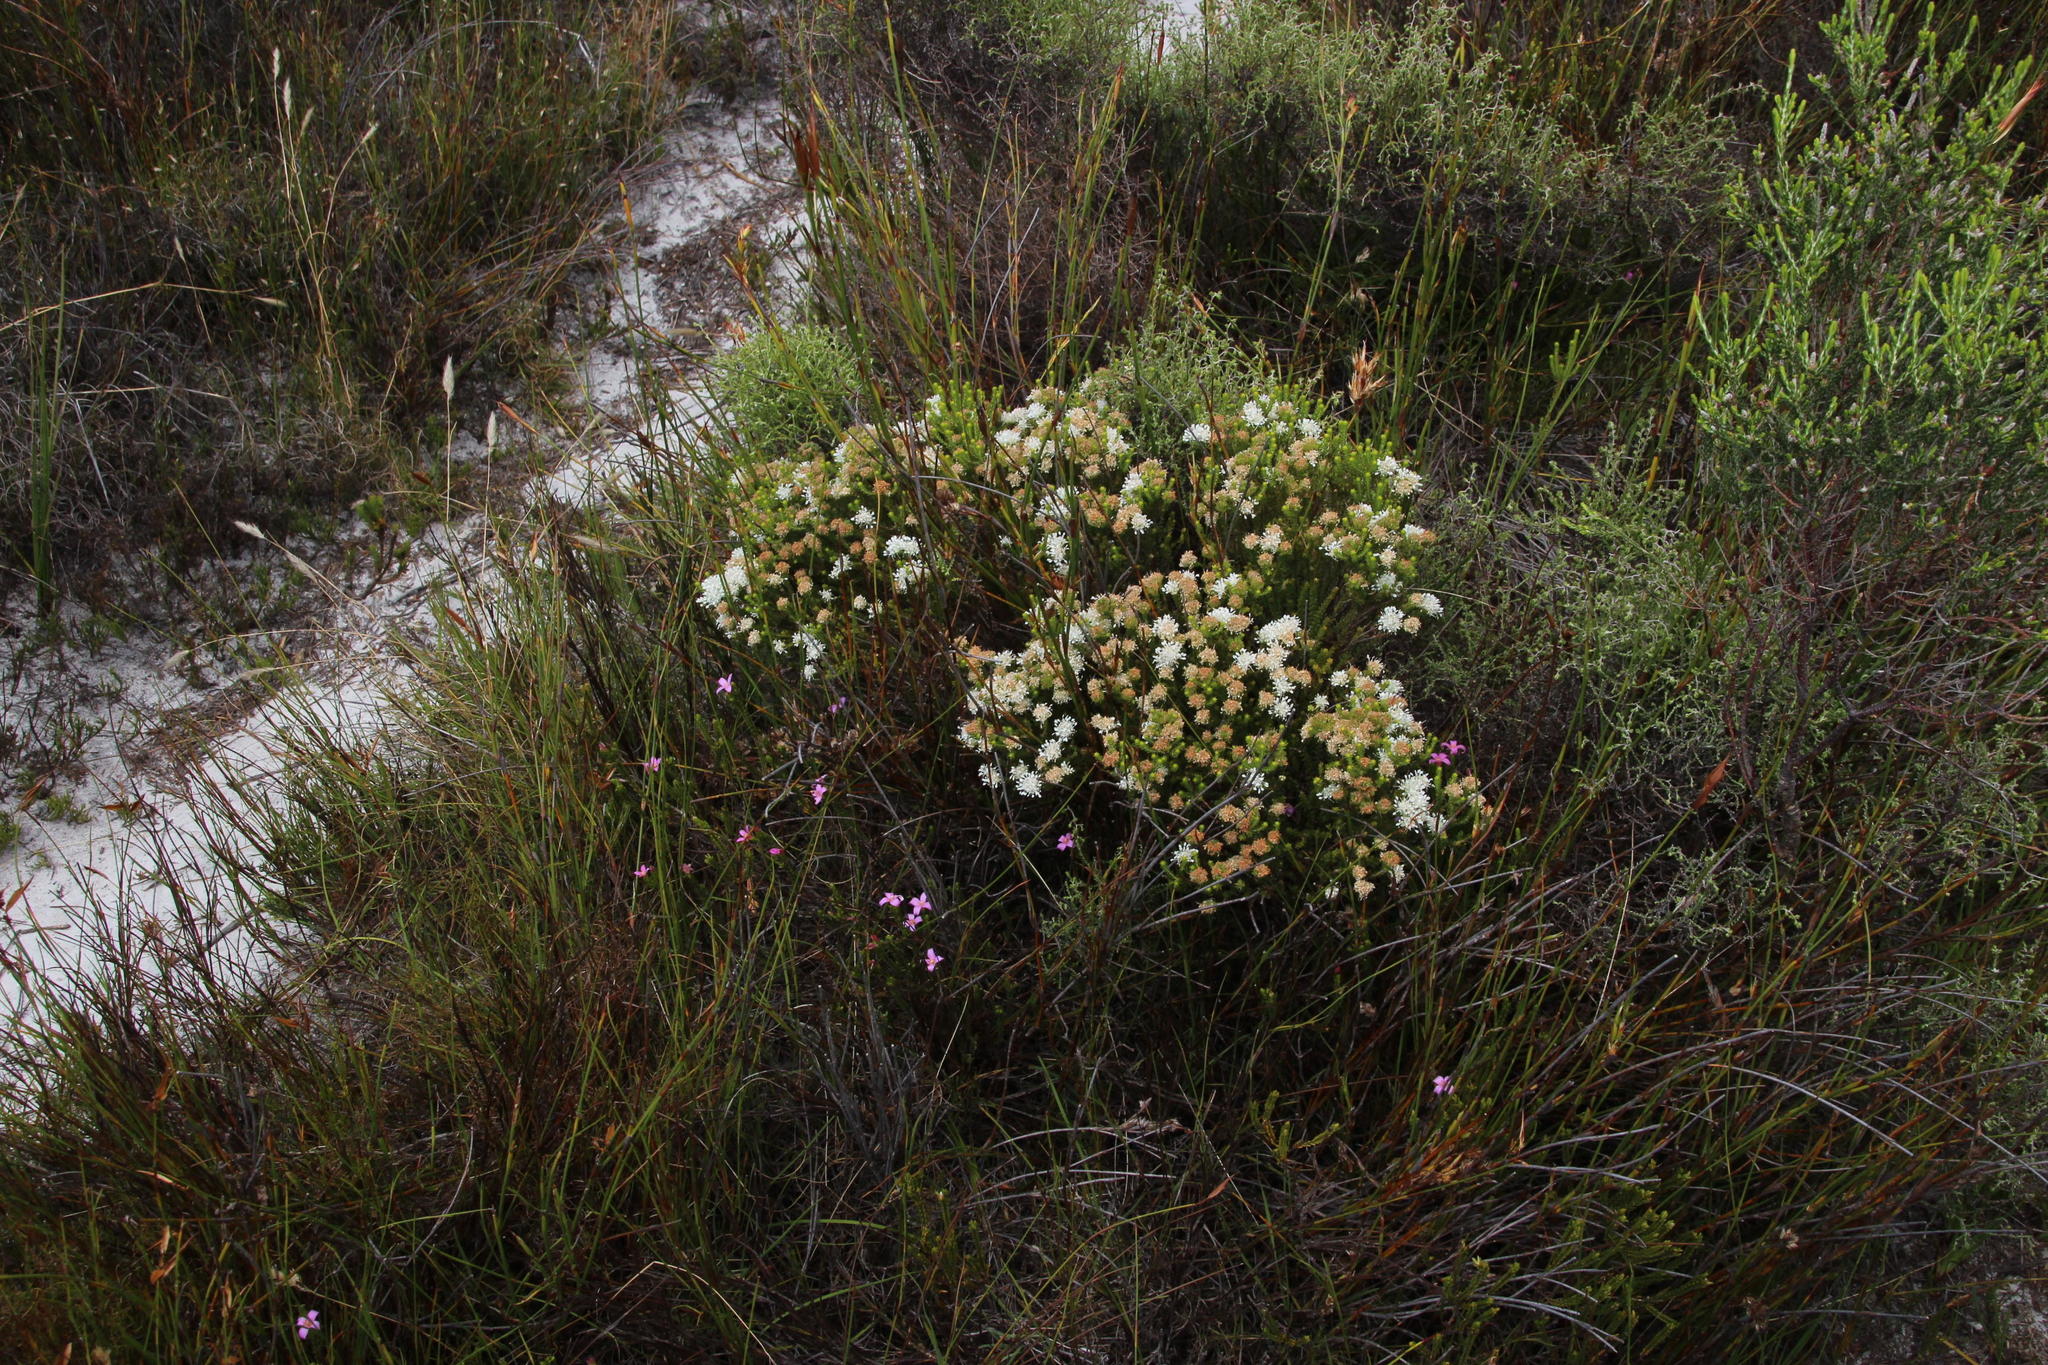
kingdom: Plantae
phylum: Tracheophyta
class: Magnoliopsida
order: Sapindales
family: Rutaceae
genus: Agathosma
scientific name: Agathosma imbricata
